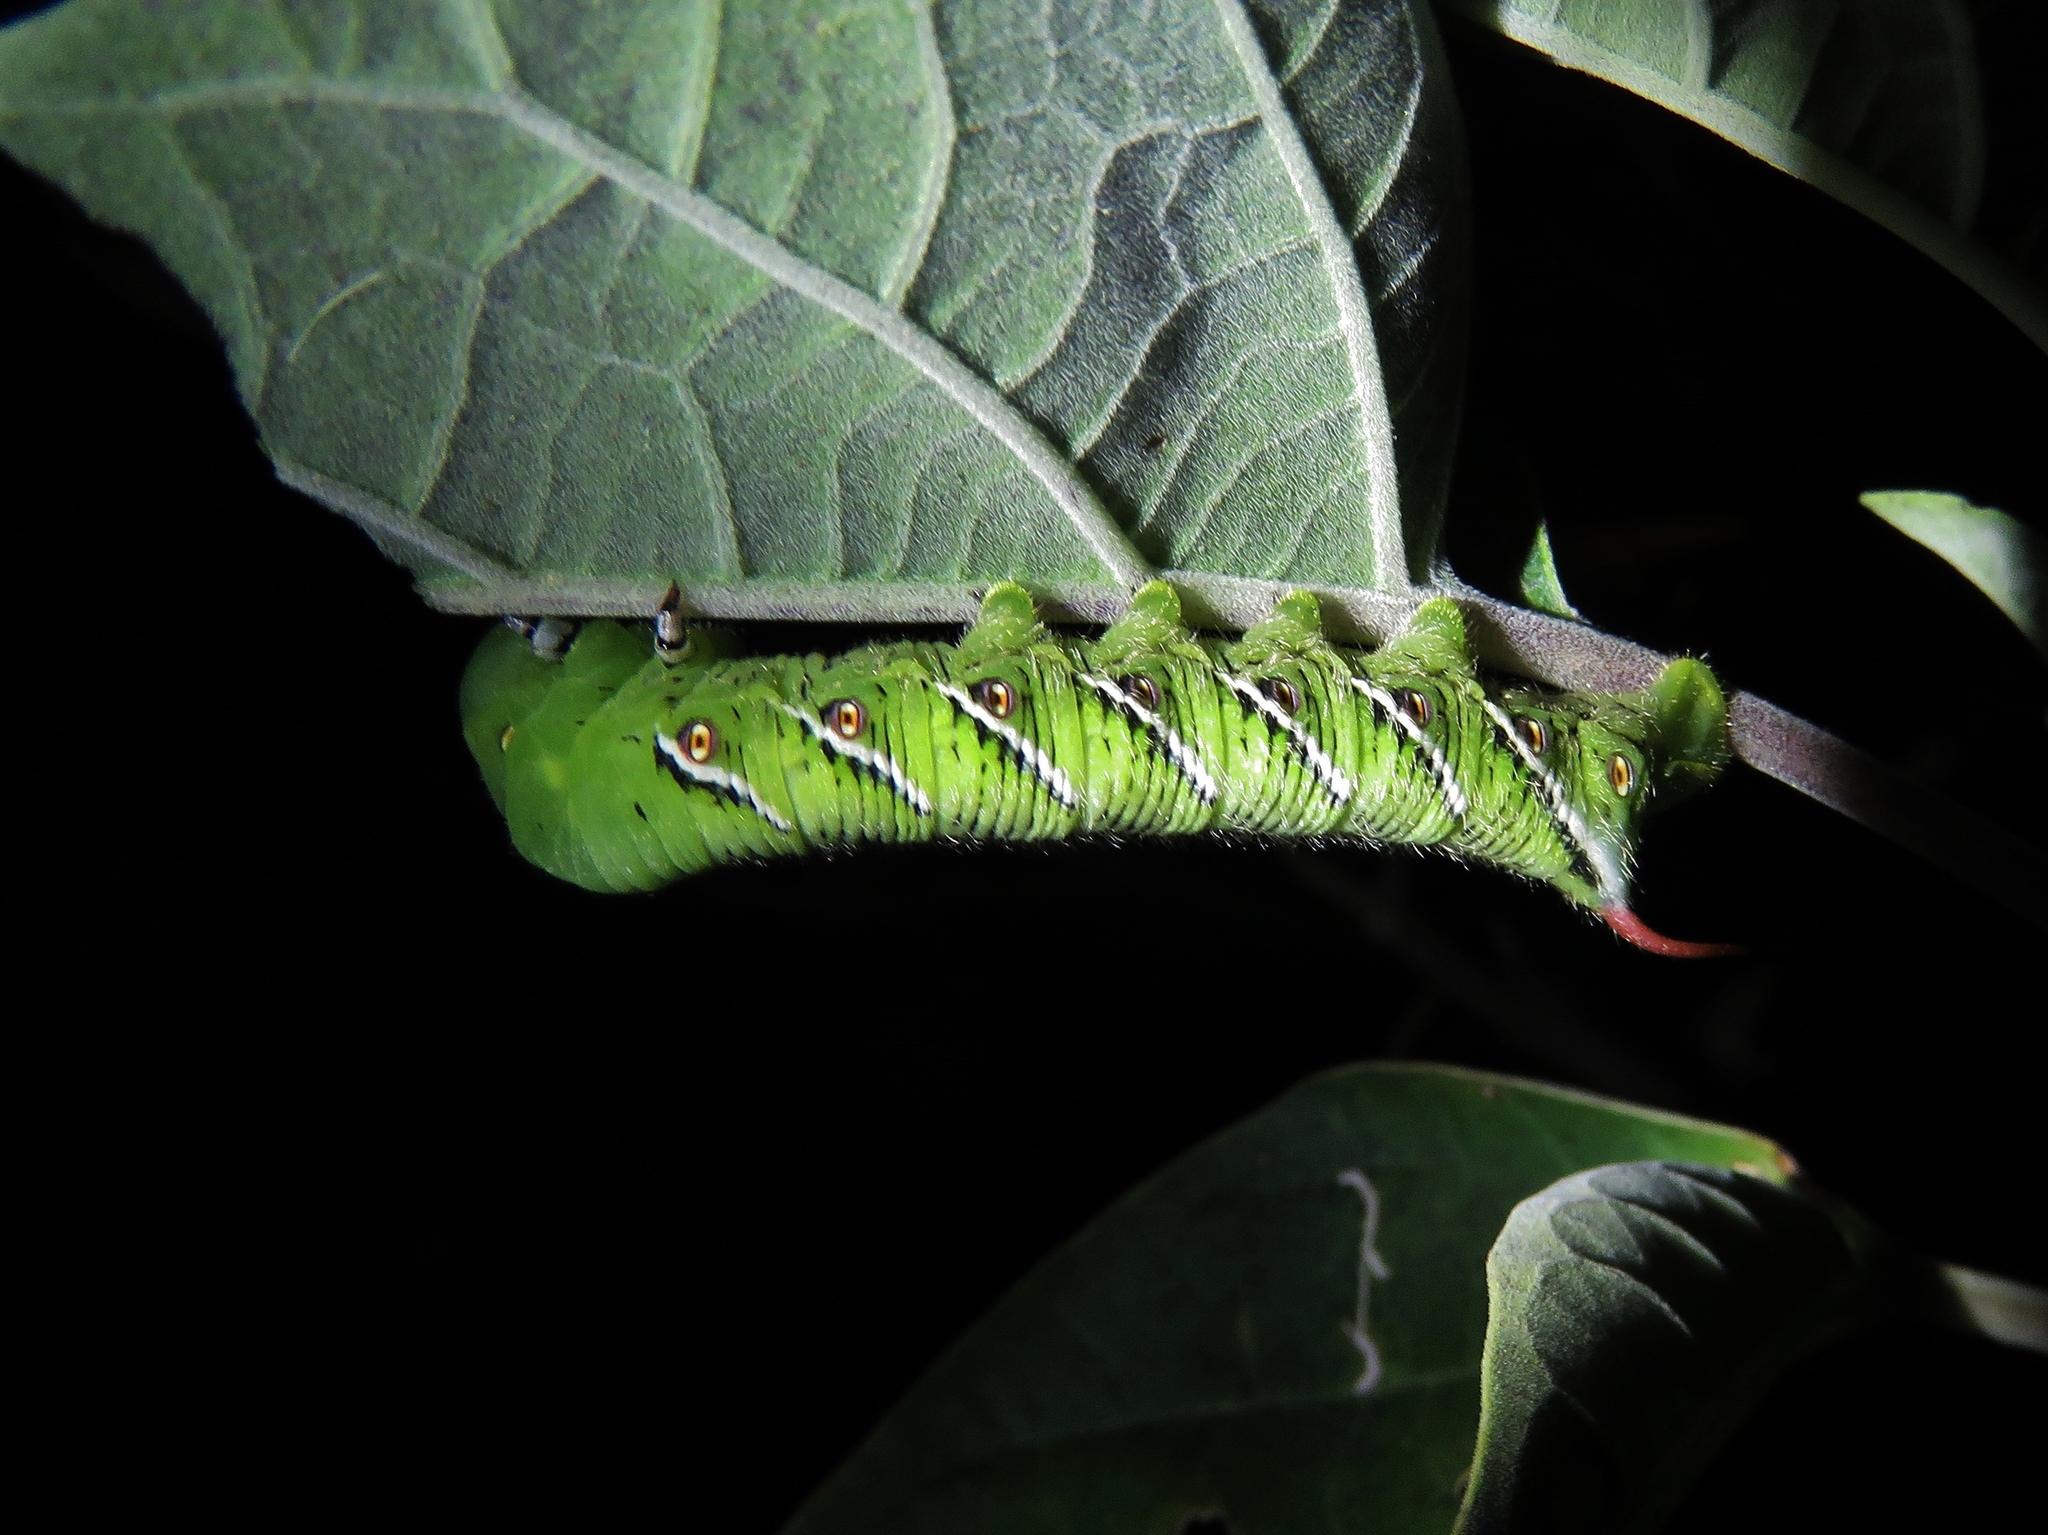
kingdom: Animalia
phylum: Arthropoda
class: Insecta
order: Lepidoptera
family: Sphingidae
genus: Manduca
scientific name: Manduca sexta
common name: Carolina sphinx
